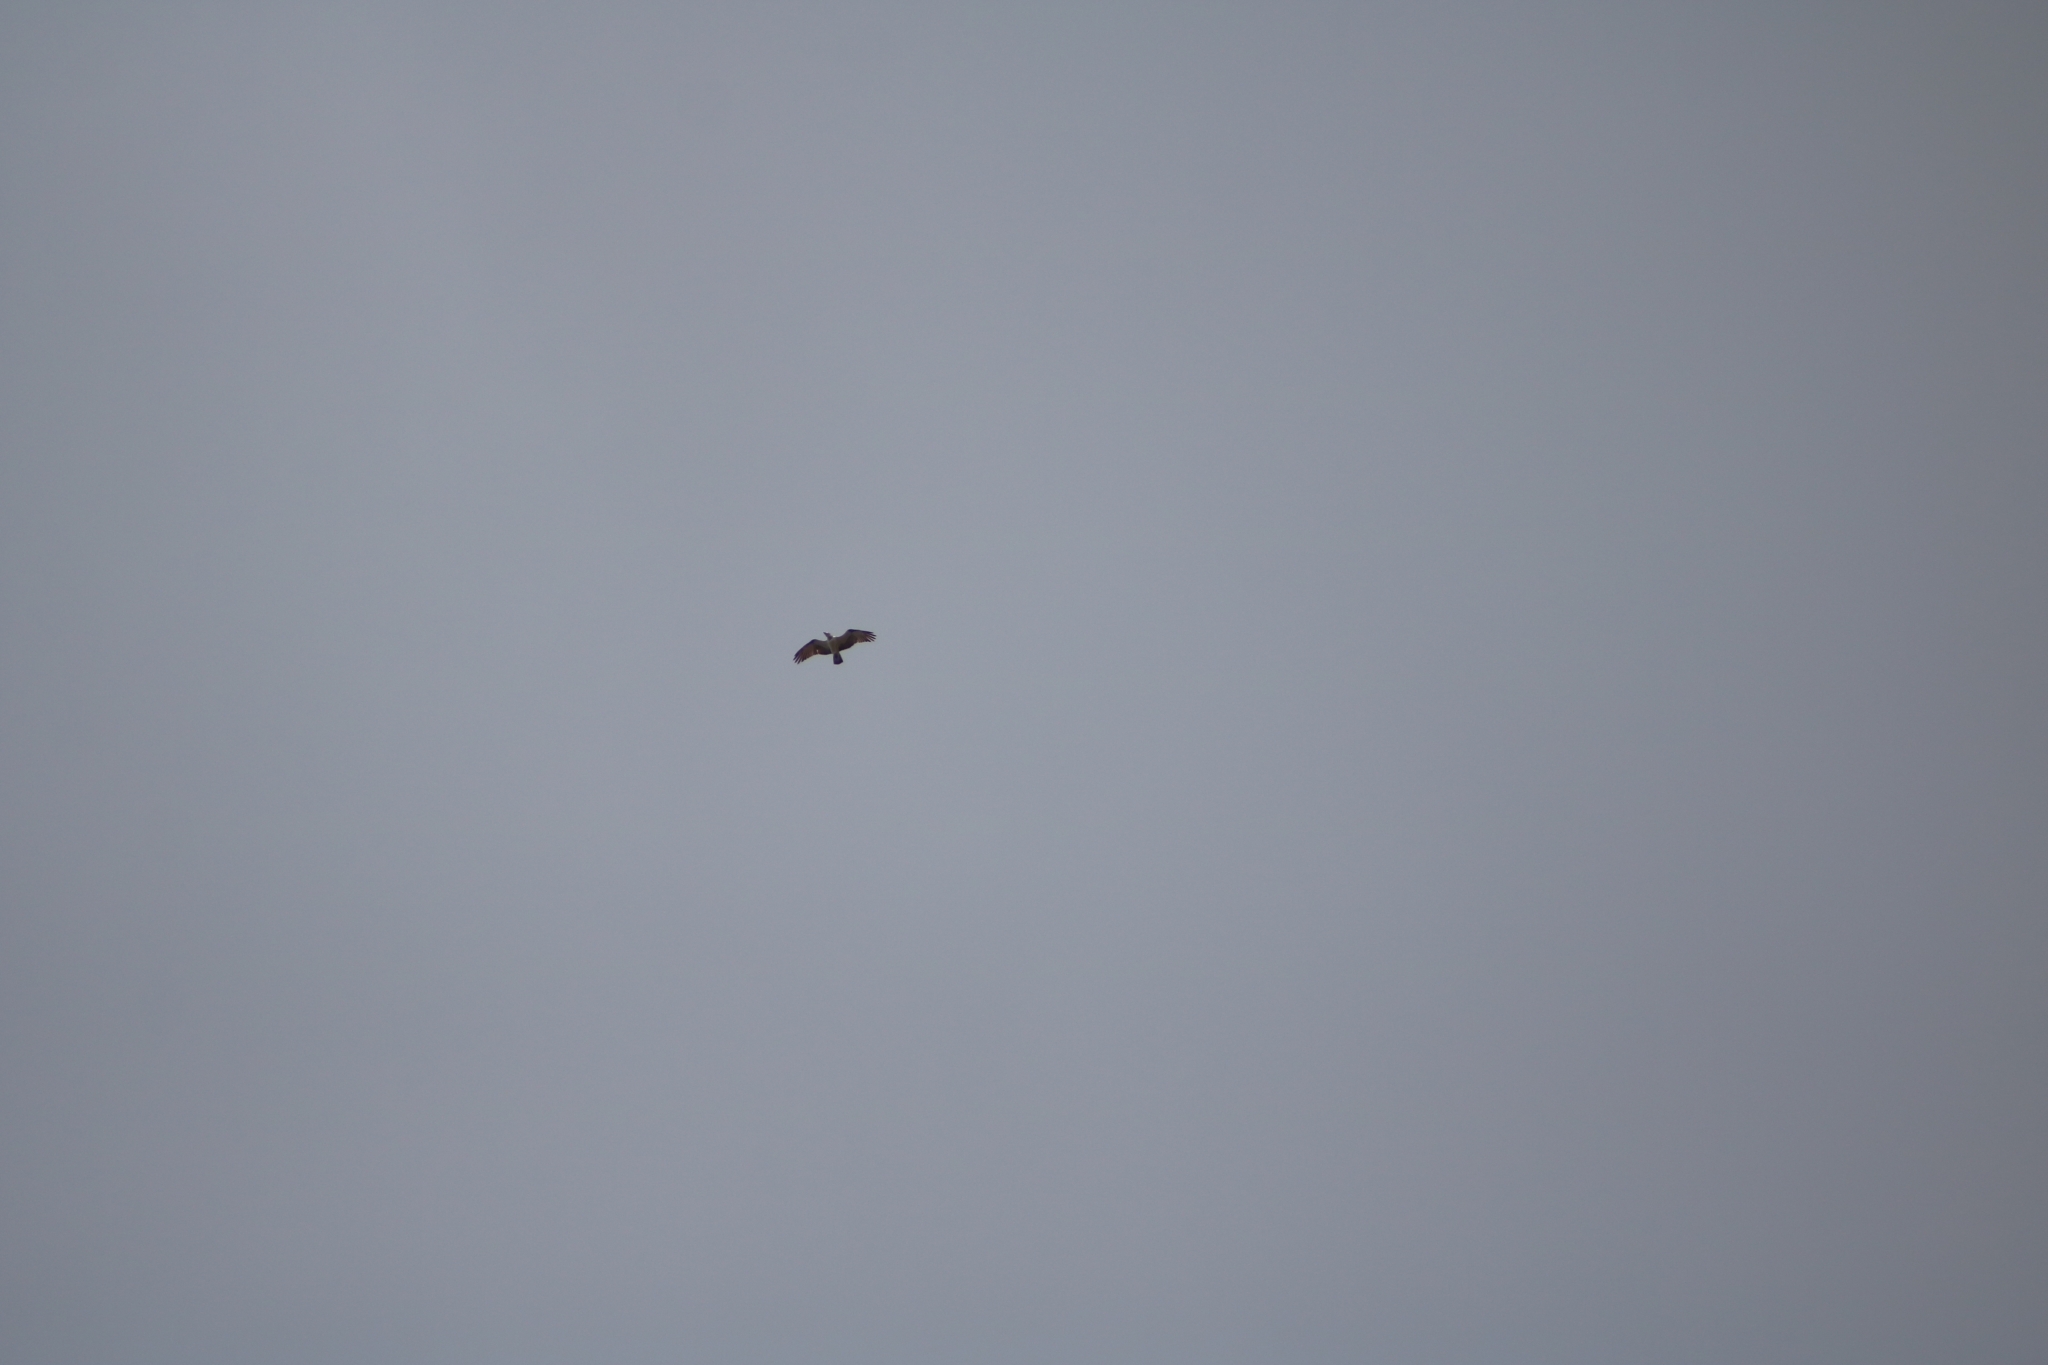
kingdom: Animalia
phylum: Chordata
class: Aves
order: Accipitriformes
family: Pandionidae
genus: Pandion
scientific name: Pandion haliaetus
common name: Osprey
